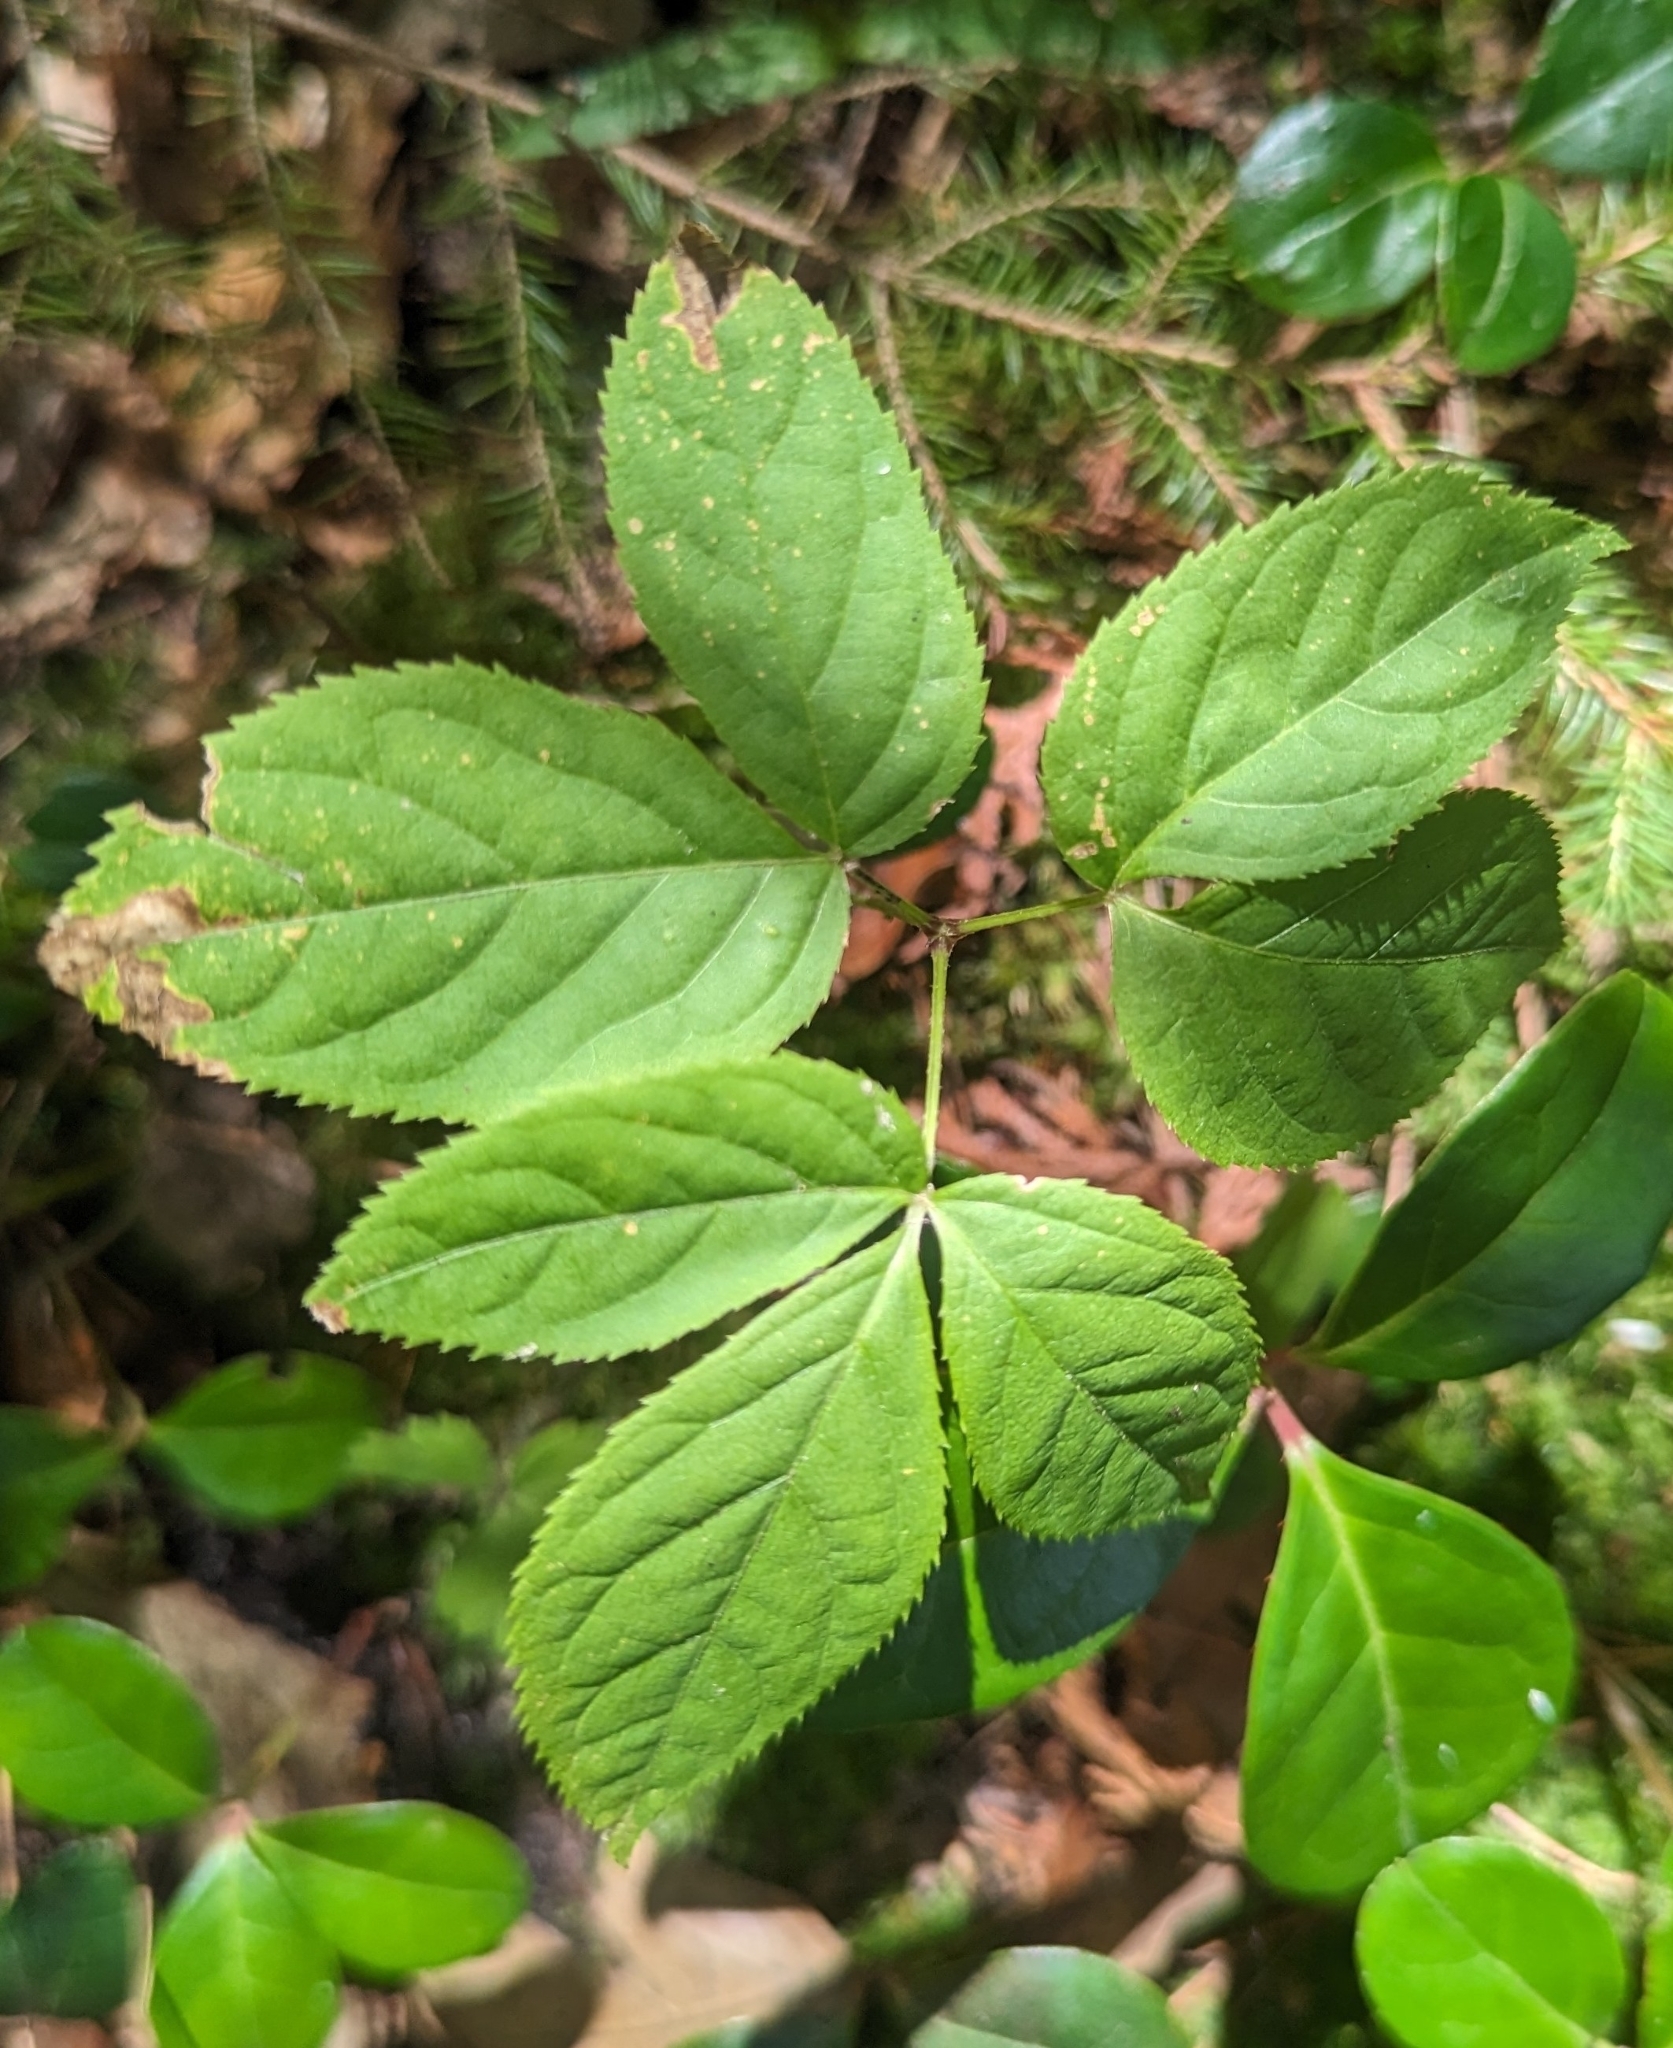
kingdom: Plantae
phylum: Tracheophyta
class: Magnoliopsida
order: Apiales
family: Araliaceae
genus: Aralia
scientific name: Aralia nudicaulis
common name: Wild sarsaparilla
